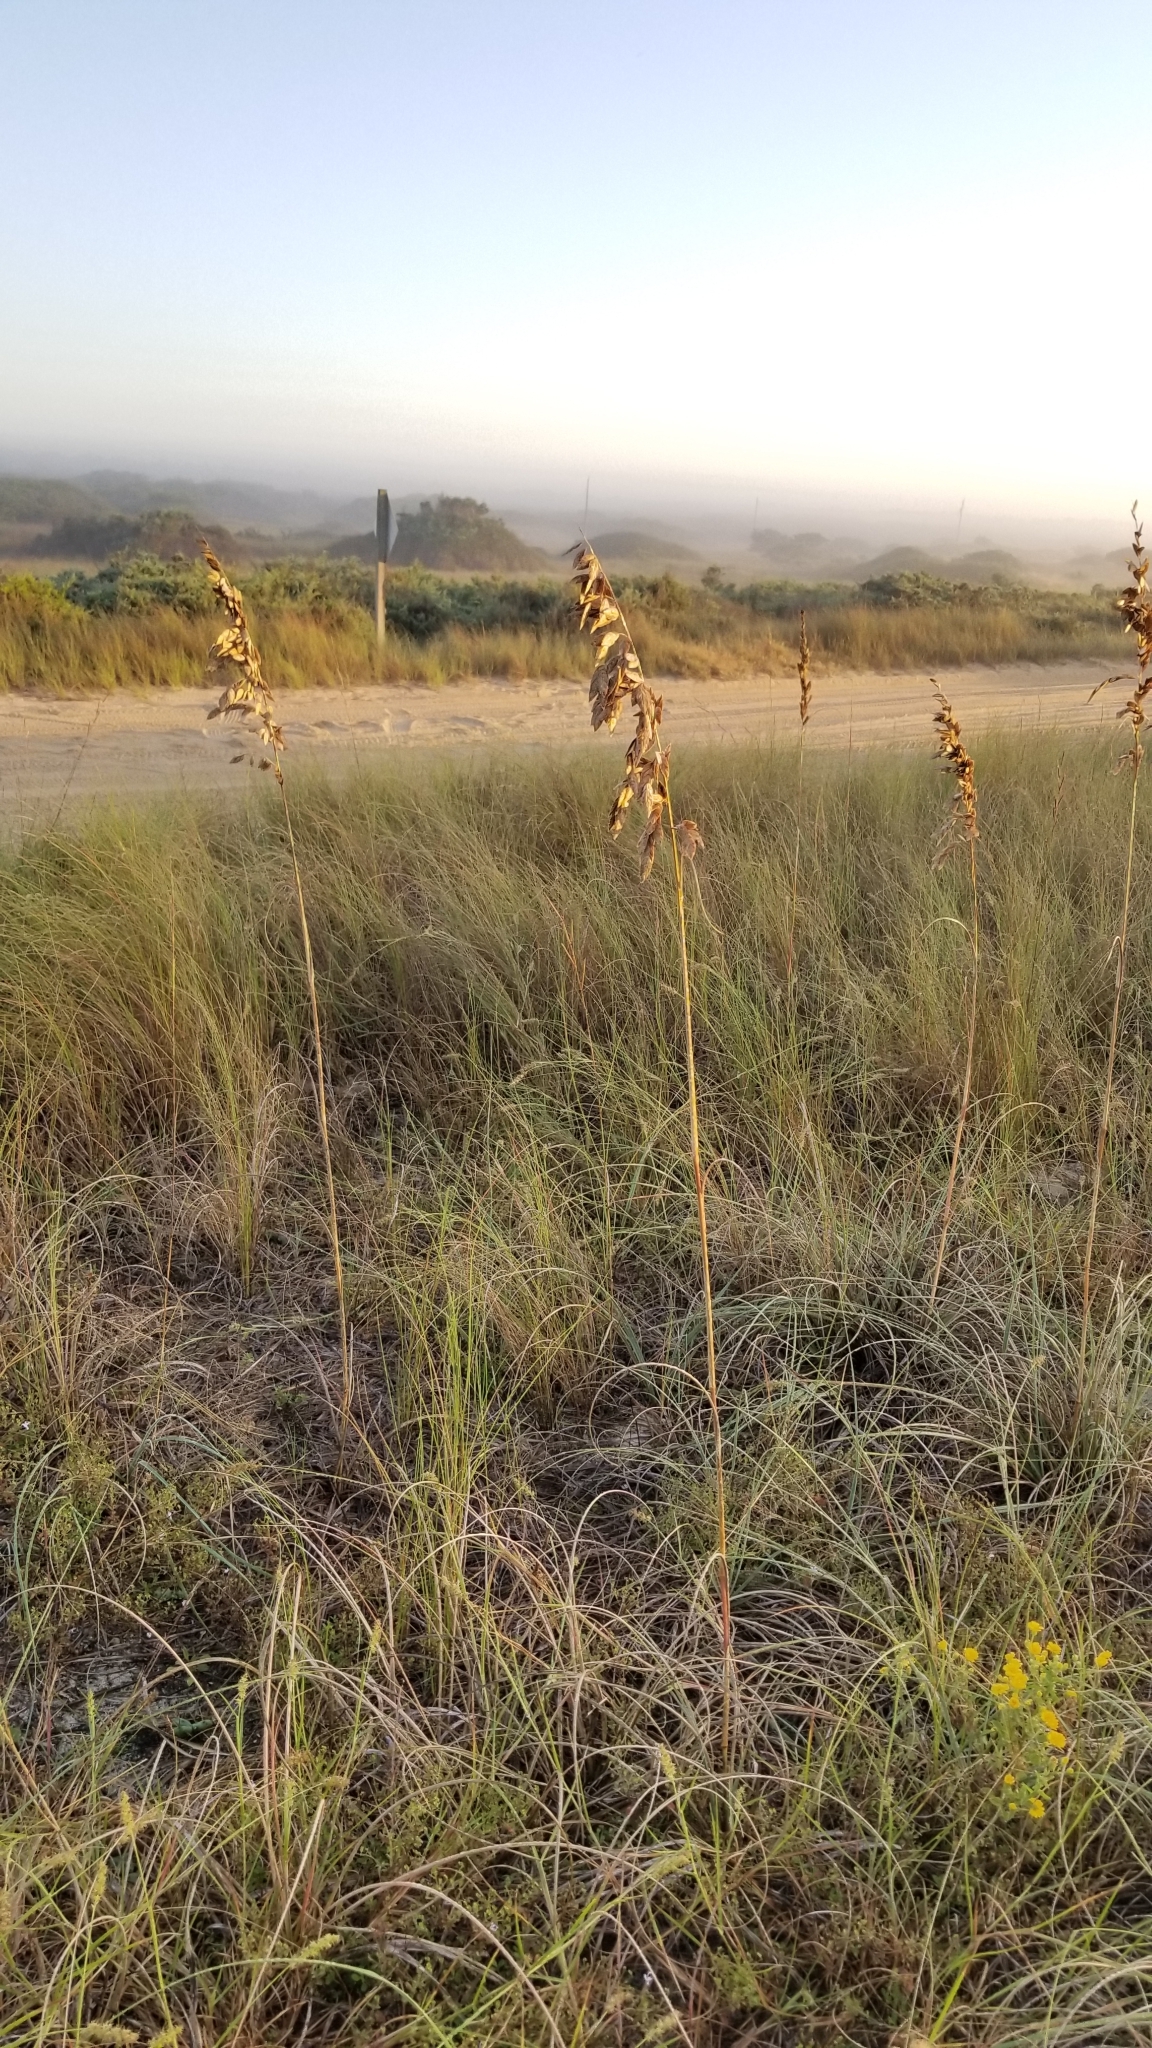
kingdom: Plantae
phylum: Tracheophyta
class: Liliopsida
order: Poales
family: Poaceae
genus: Uniola
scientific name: Uniola paniculata
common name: Seaside-oats
